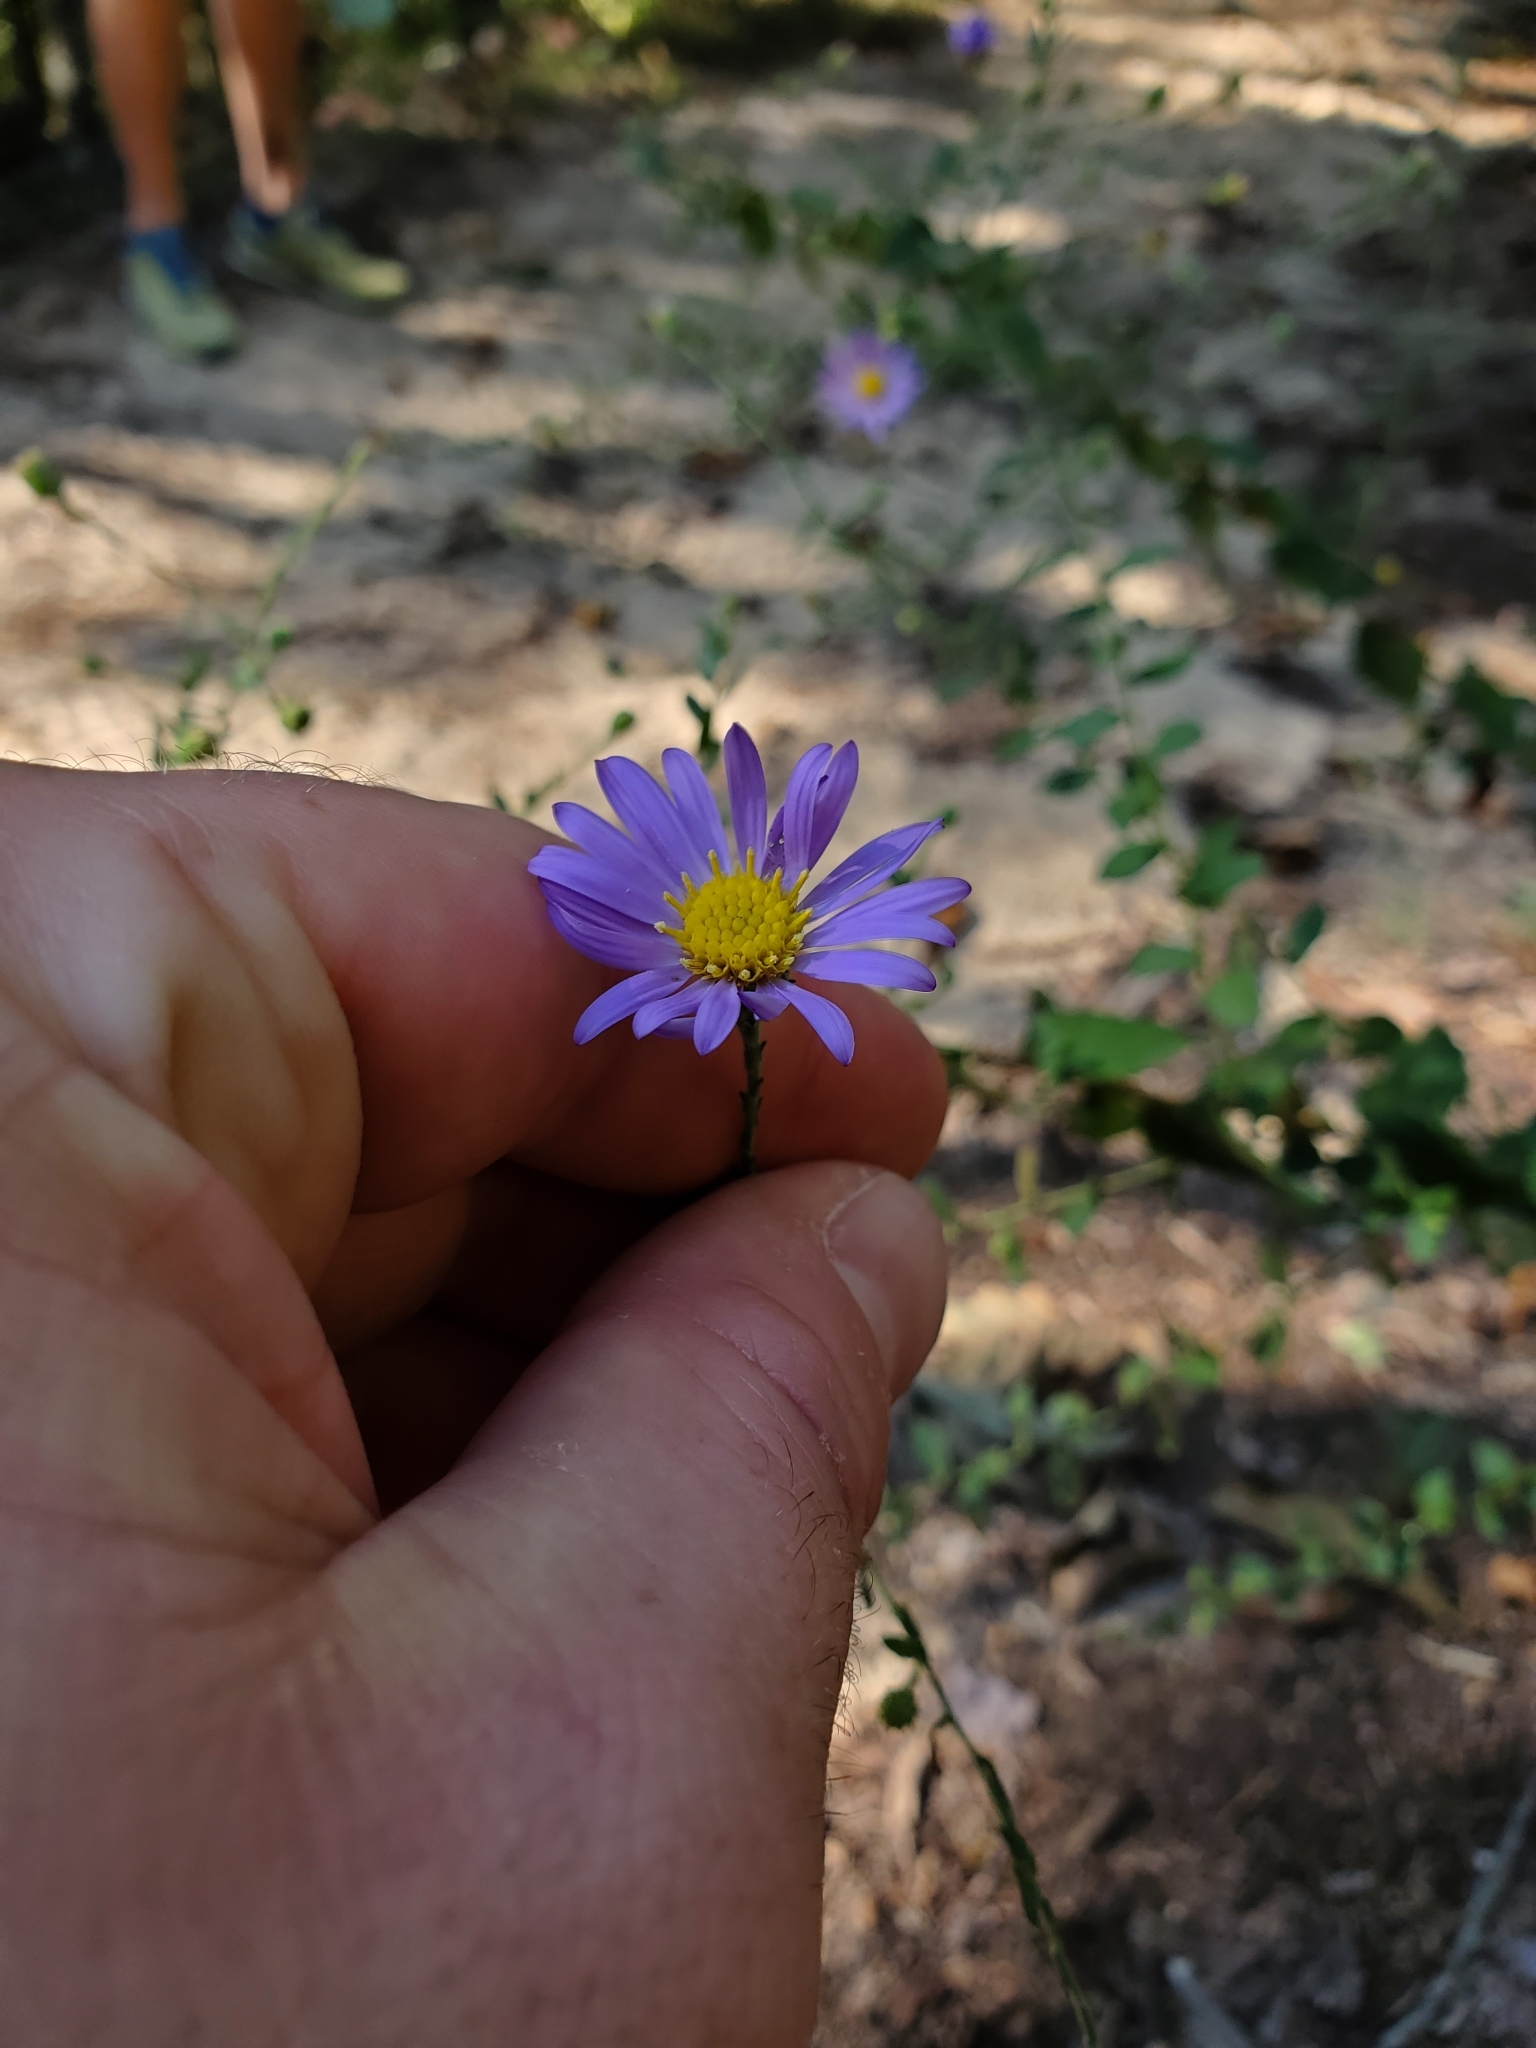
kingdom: Plantae
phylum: Tracheophyta
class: Magnoliopsida
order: Asterales
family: Asteraceae
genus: Symphyotrichum
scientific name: Symphyotrichum patens
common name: Late purple aster
